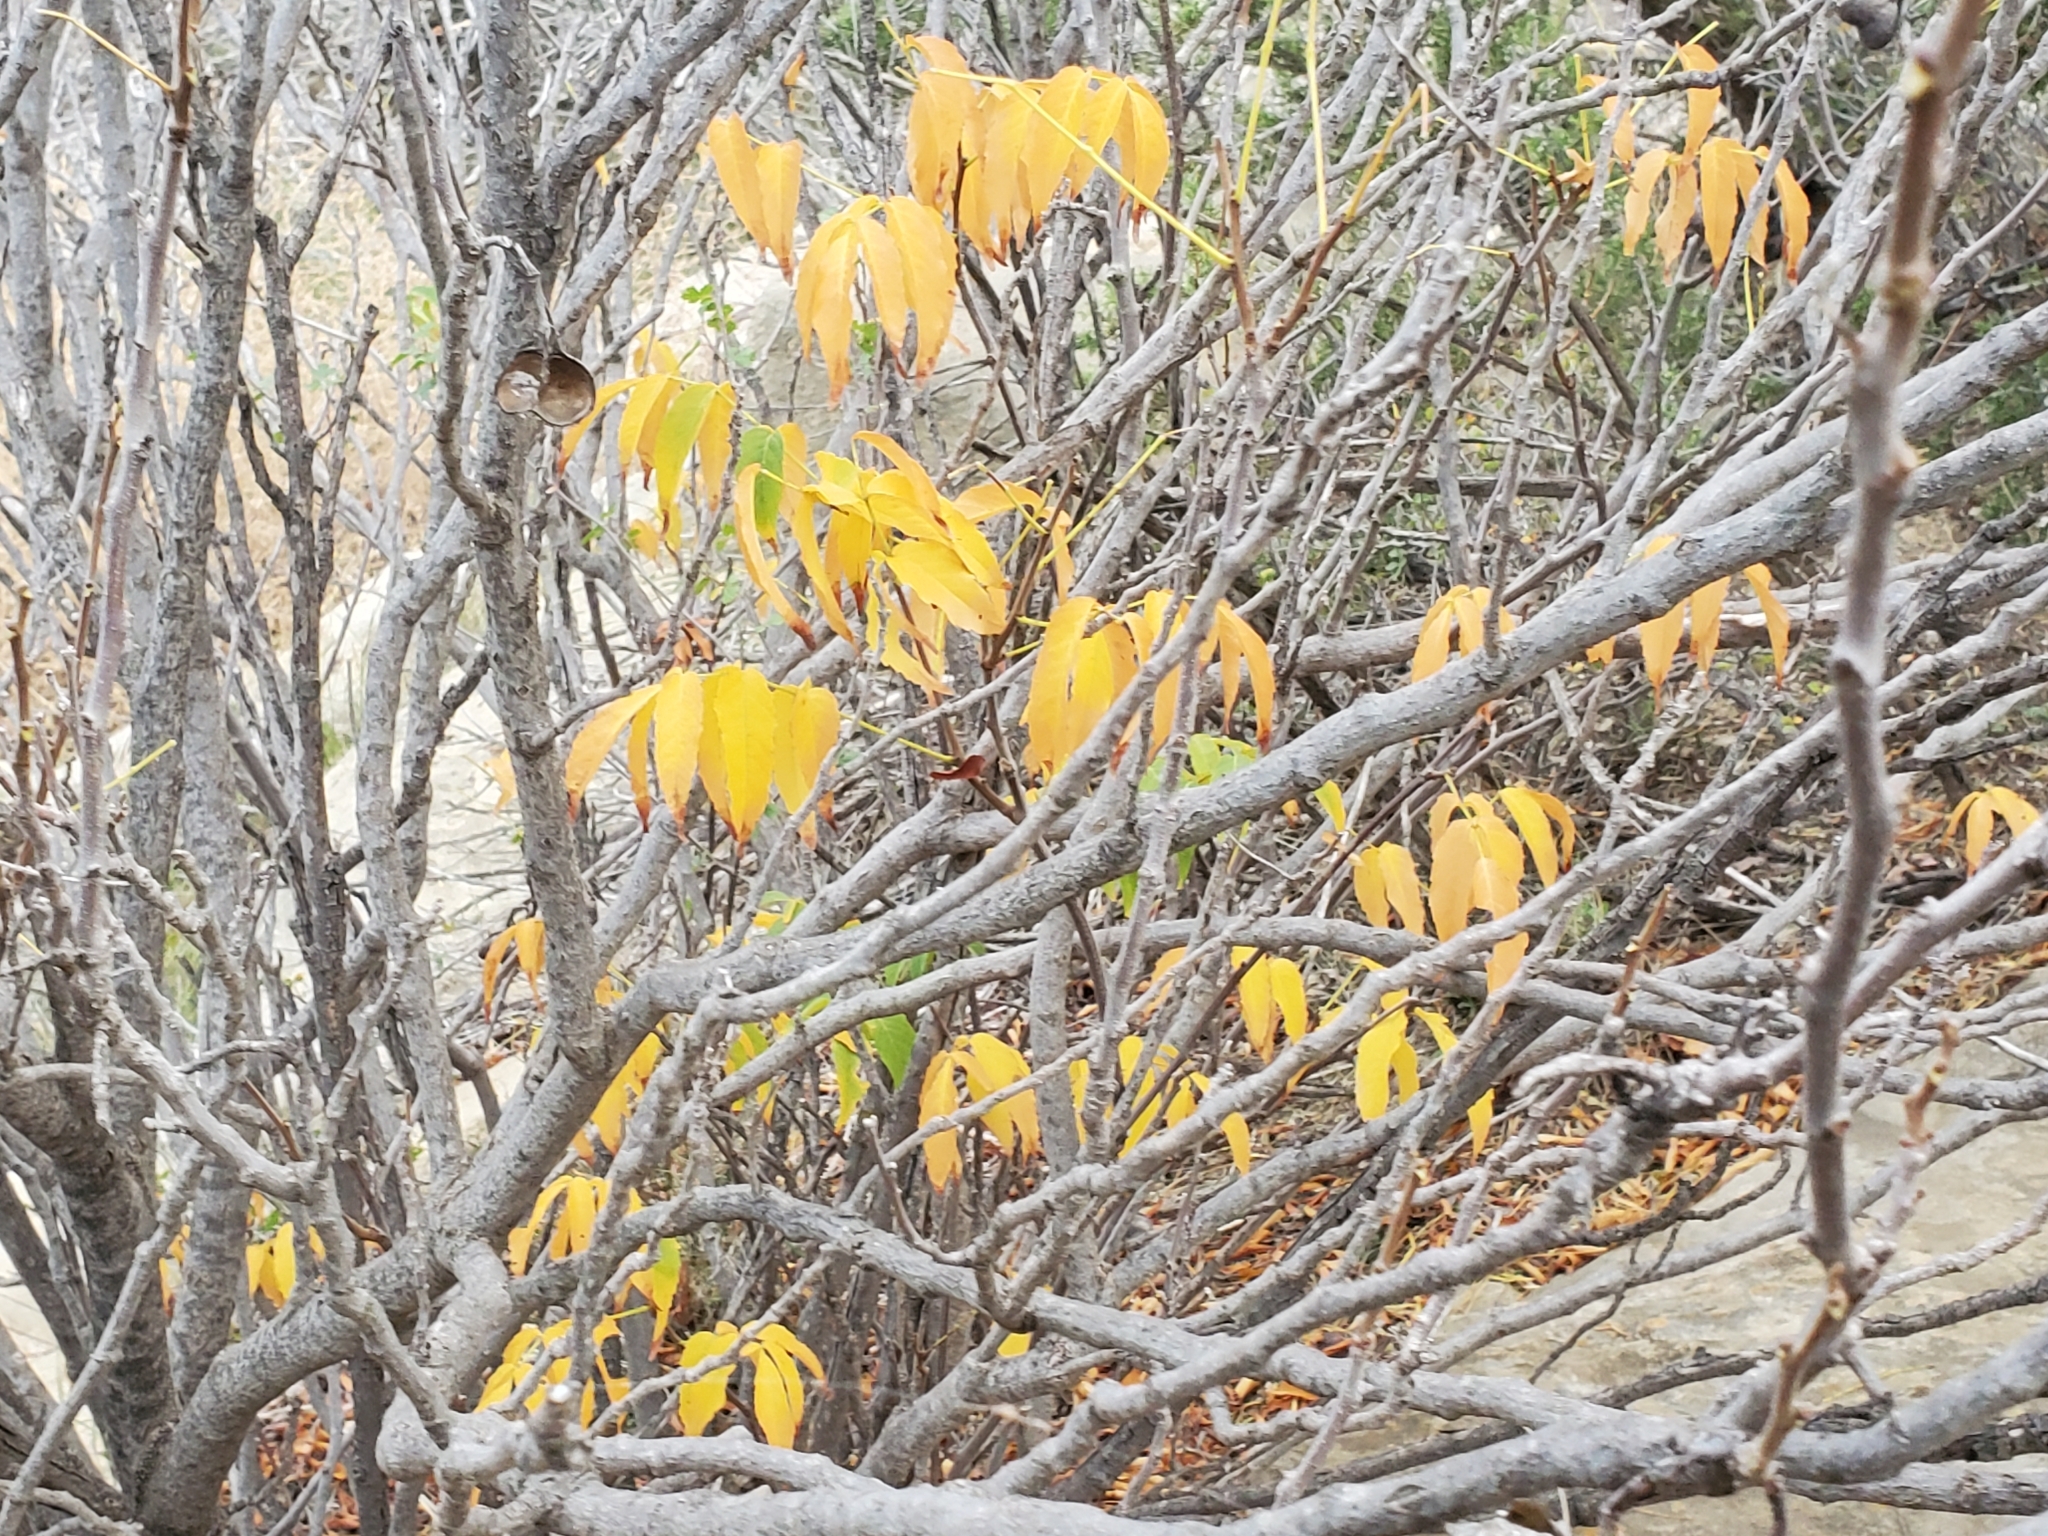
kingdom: Plantae
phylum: Tracheophyta
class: Magnoliopsida
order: Sapindales
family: Sapindaceae
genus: Ungnadia
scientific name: Ungnadia speciosa
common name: Texas-buckeye
